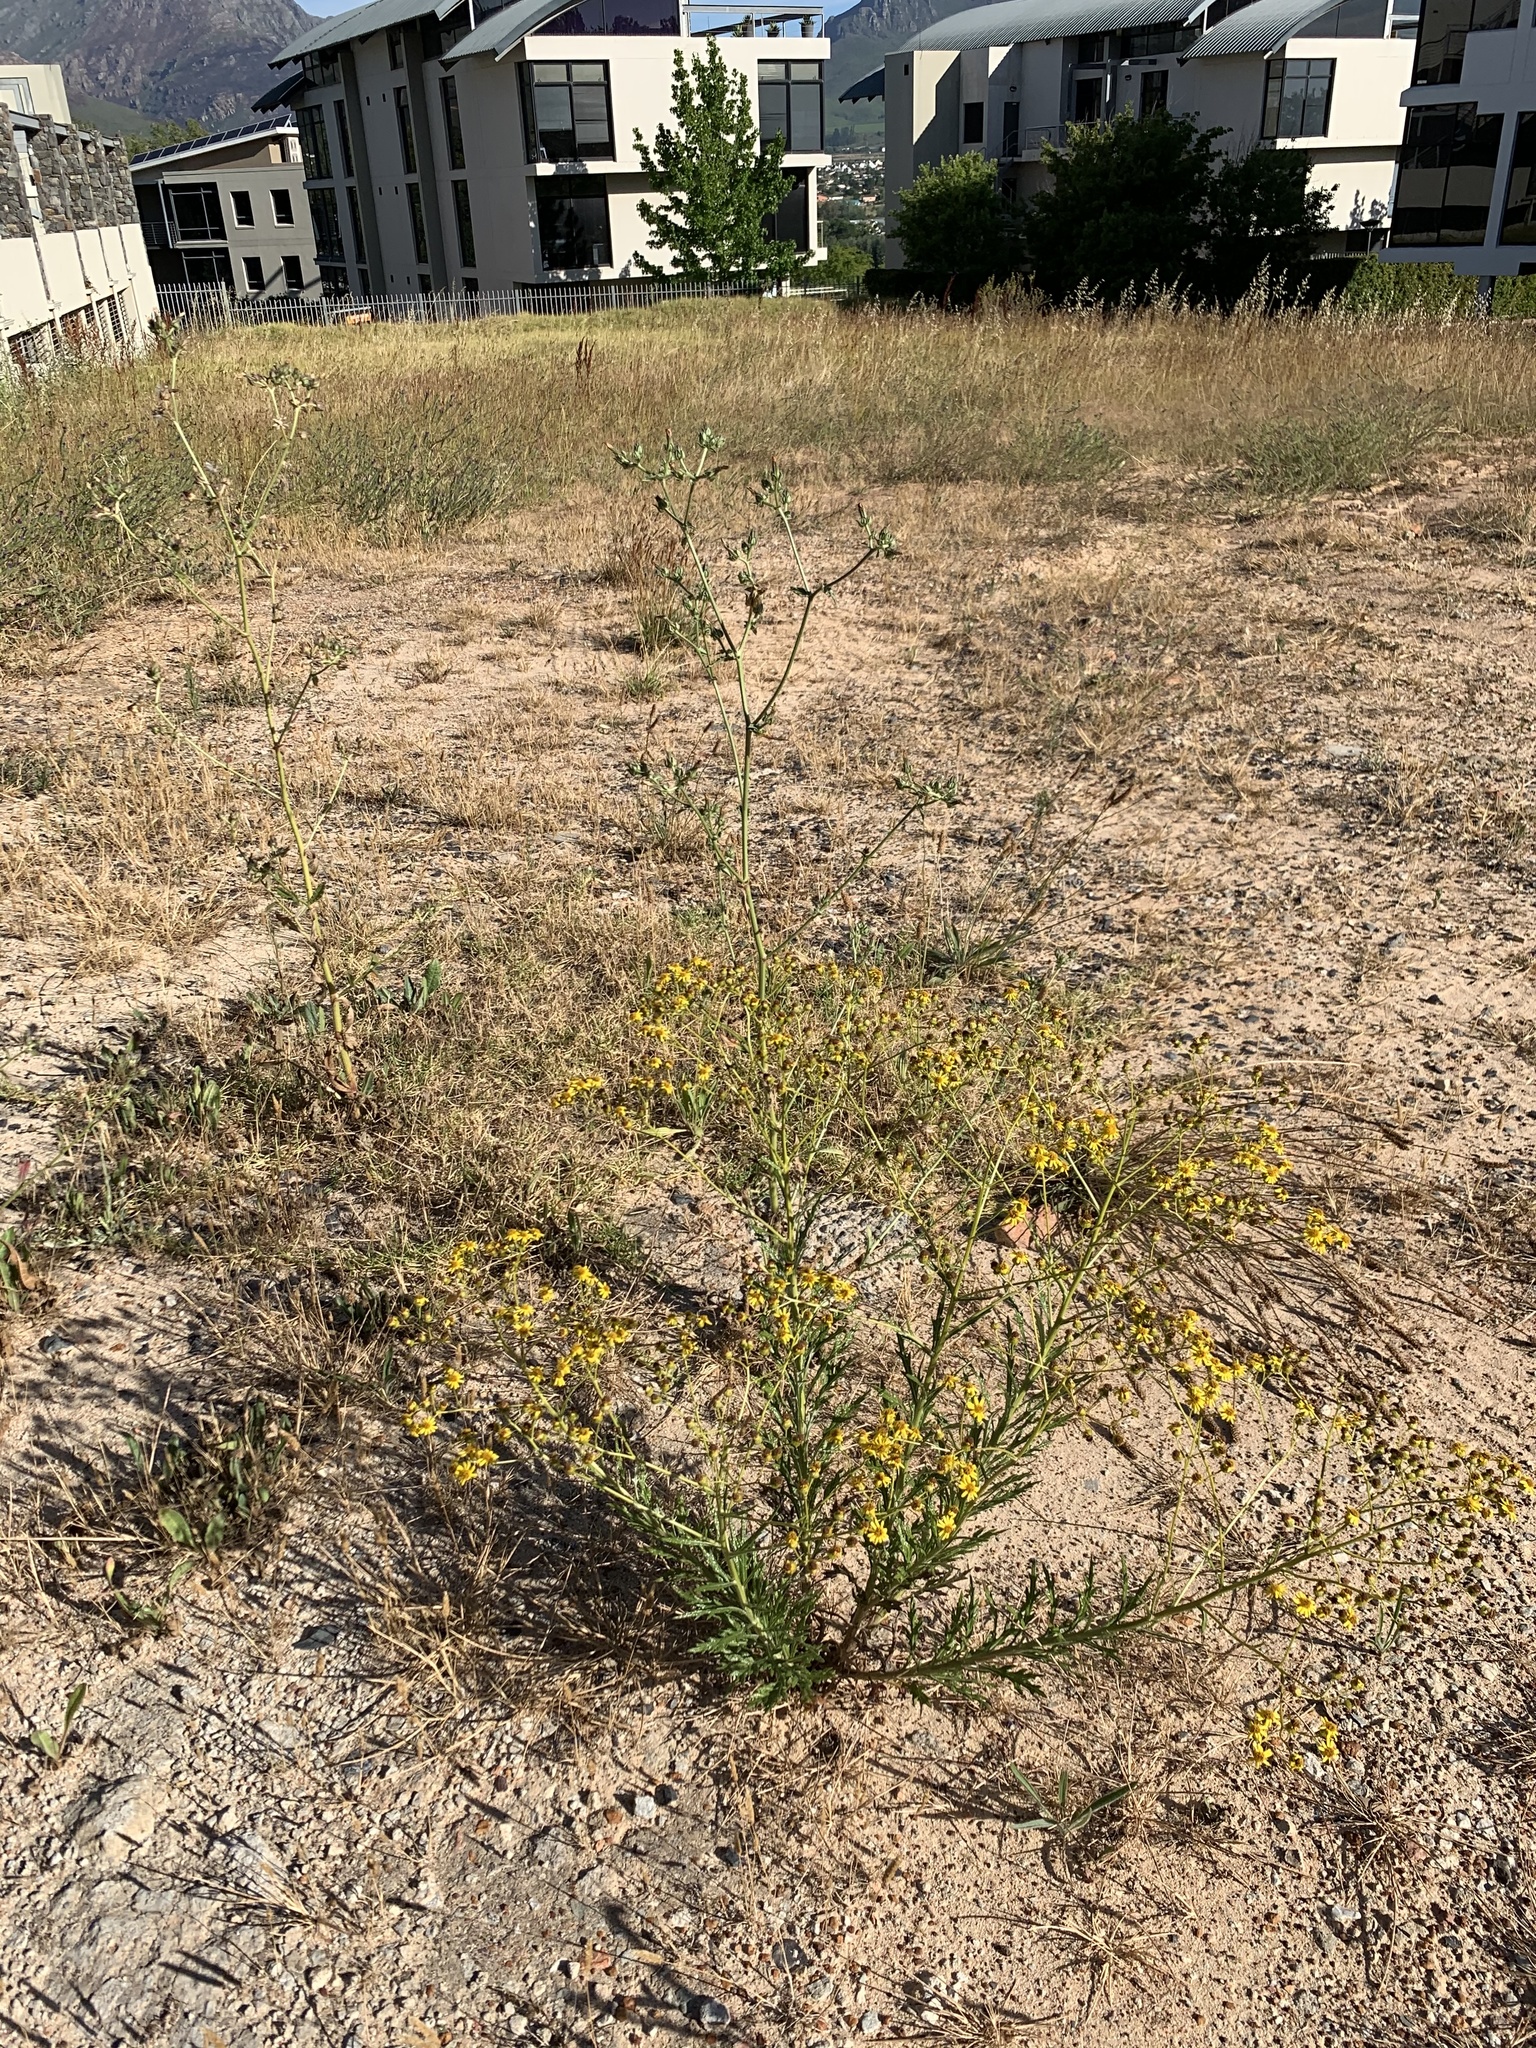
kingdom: Plantae
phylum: Tracheophyta
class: Magnoliopsida
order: Asterales
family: Asteraceae
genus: Senecio
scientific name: Senecio pterophorus
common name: Shoddy ragwort
